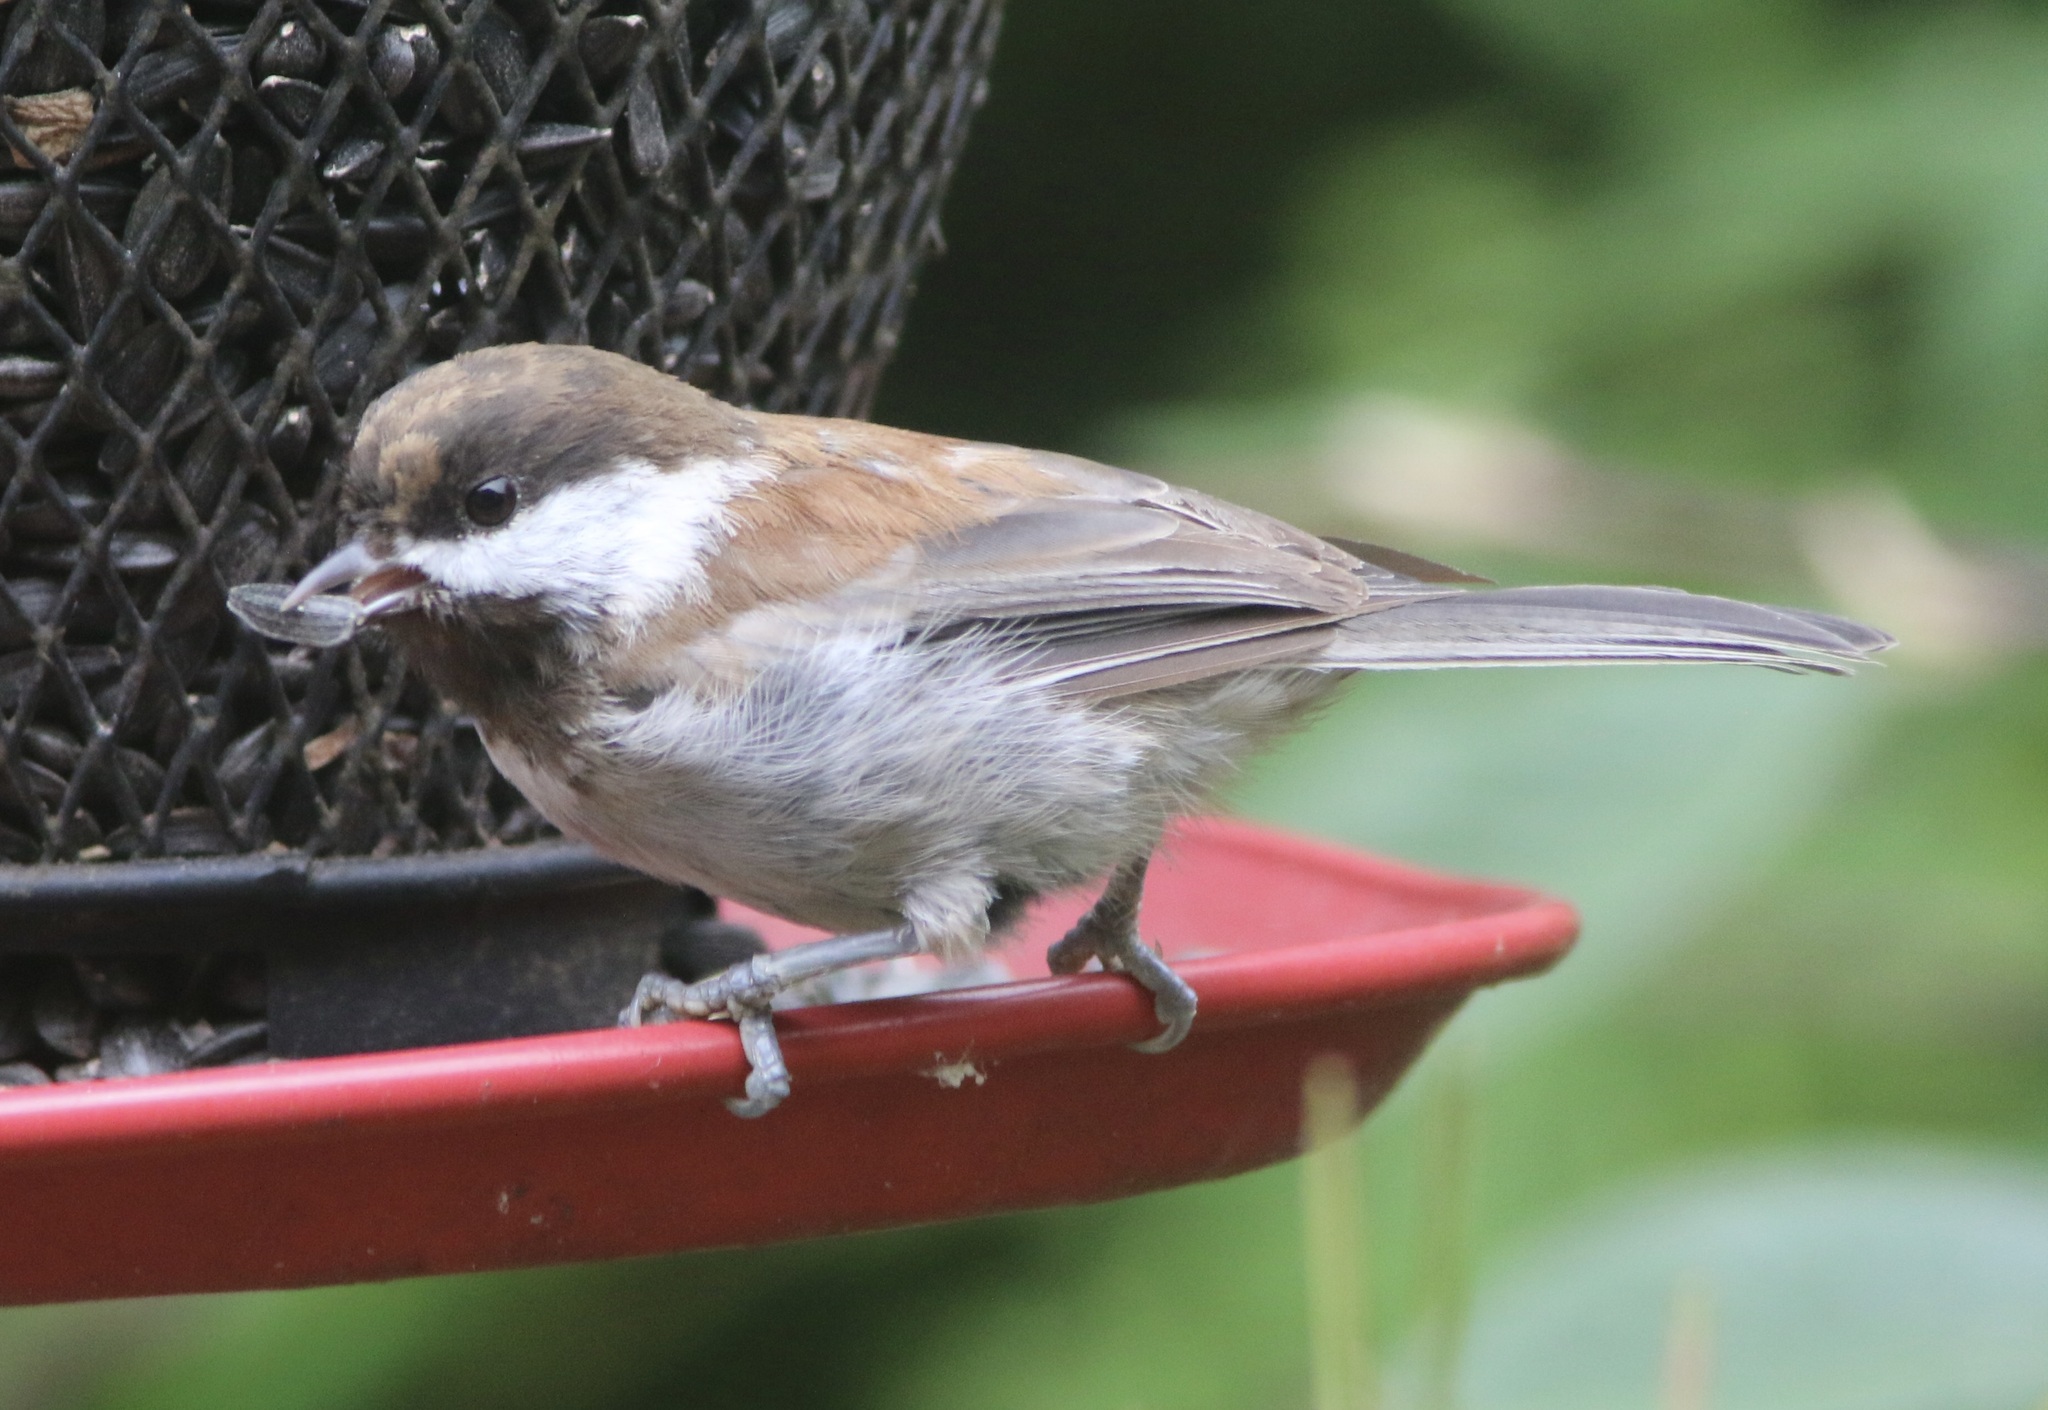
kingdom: Animalia
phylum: Chordata
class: Aves
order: Passeriformes
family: Paridae
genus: Poecile
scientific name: Poecile rufescens
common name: Chestnut-backed chickadee
